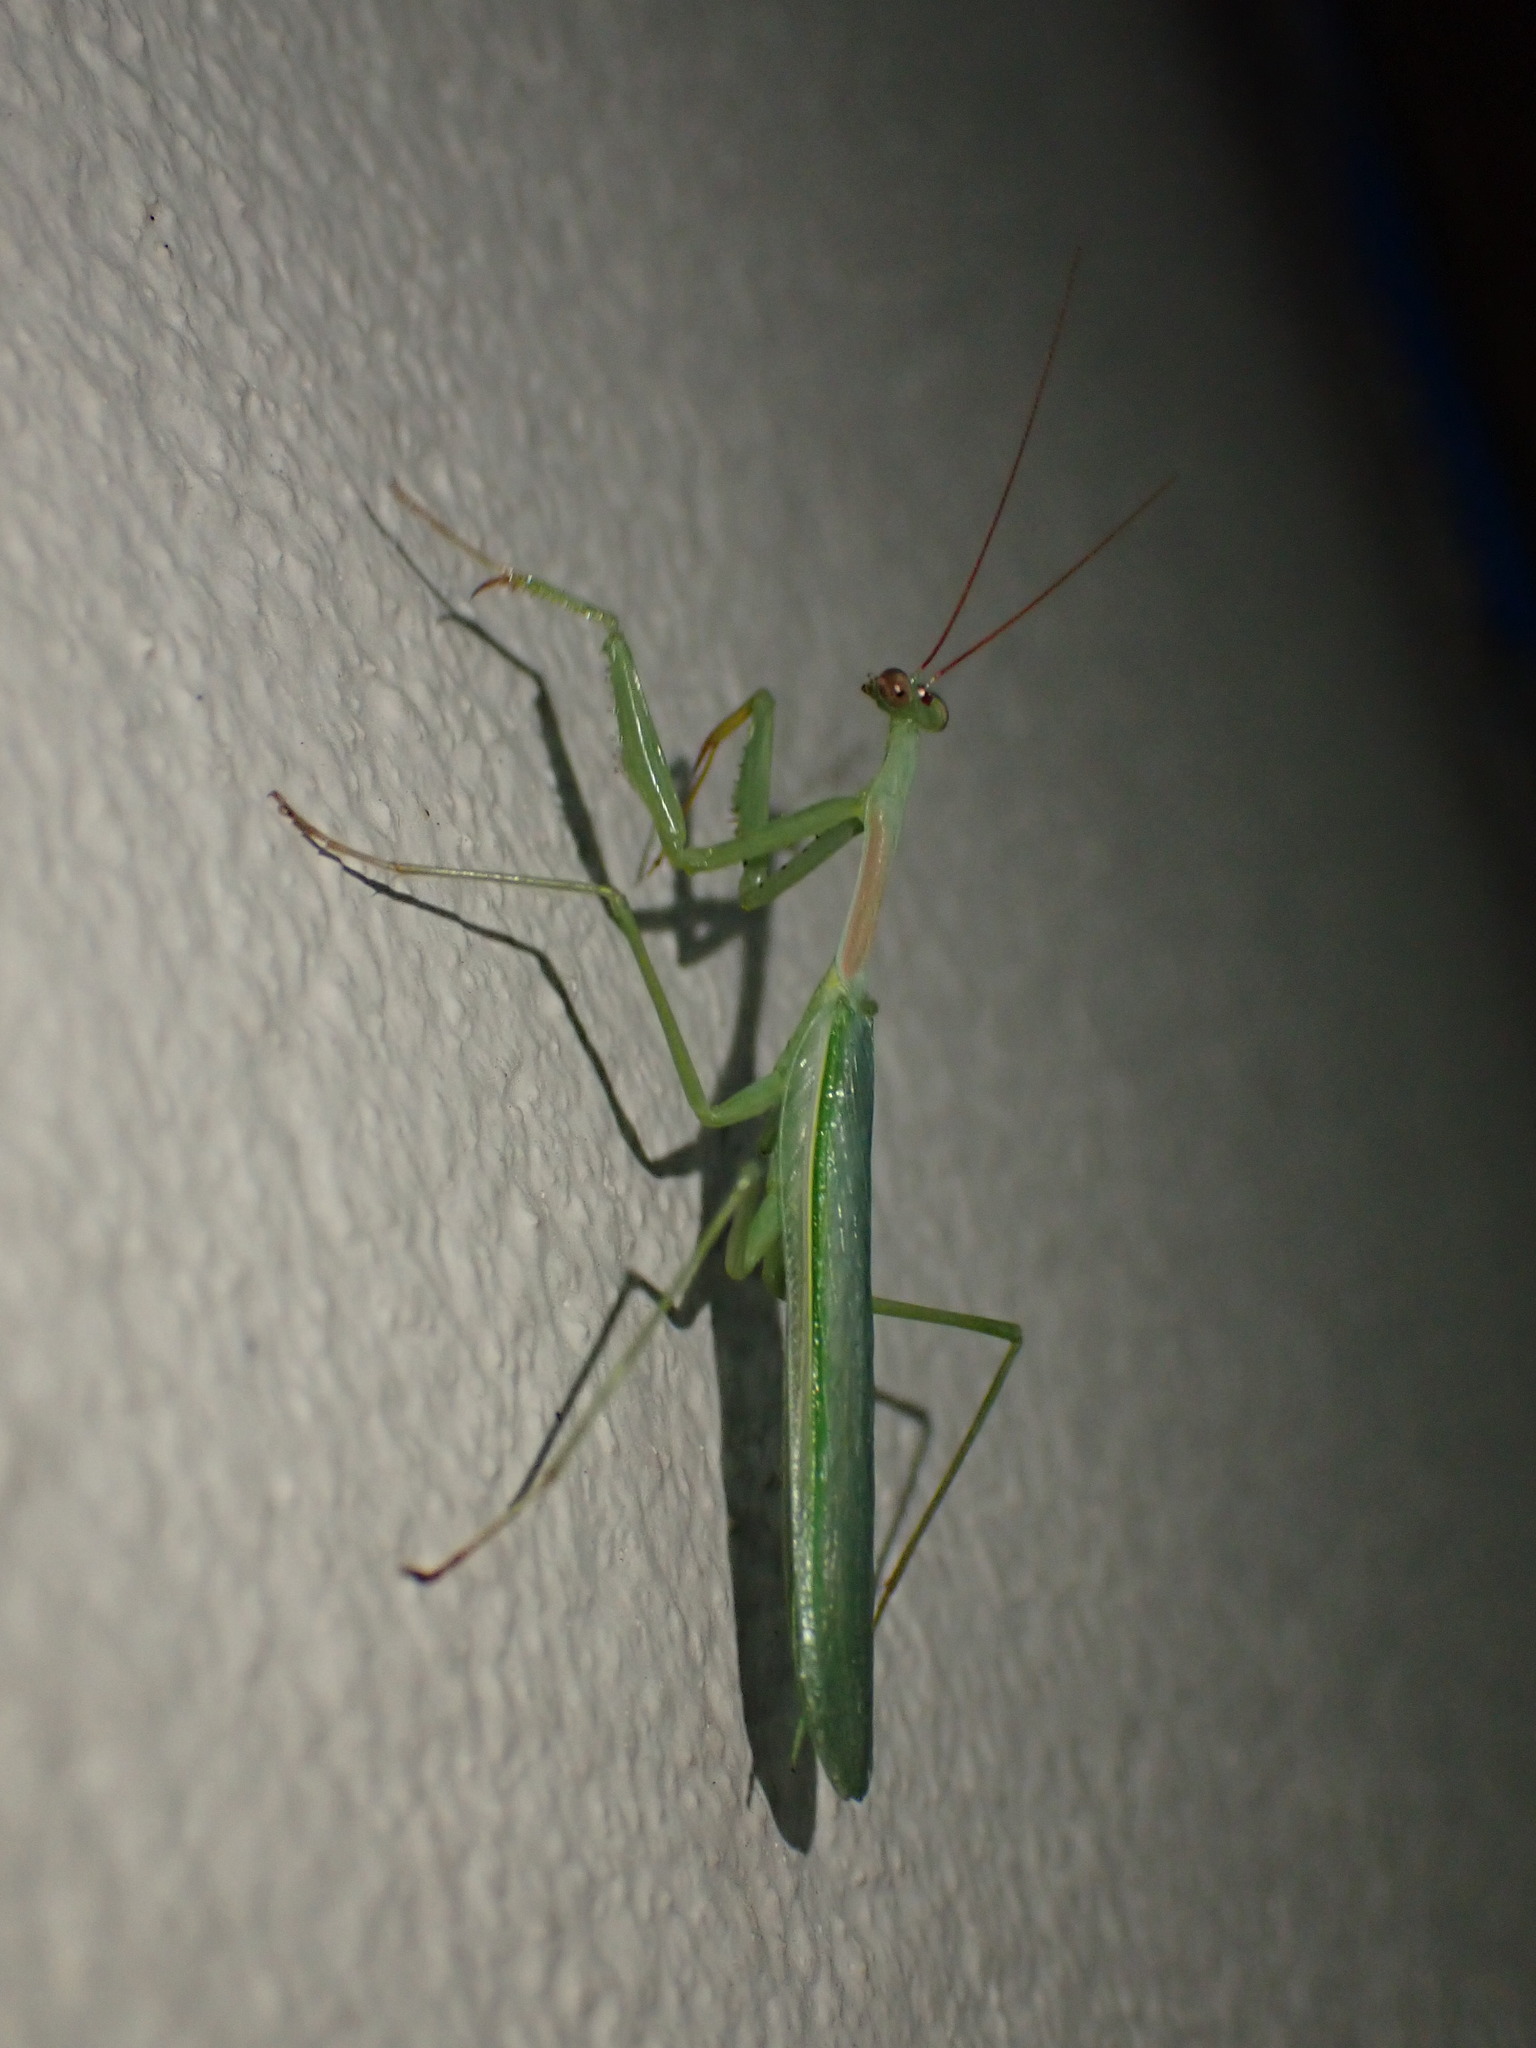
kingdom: Animalia
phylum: Arthropoda
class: Insecta
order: Mantodea
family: Miomantidae
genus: Miomantis
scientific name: Miomantis caffra
